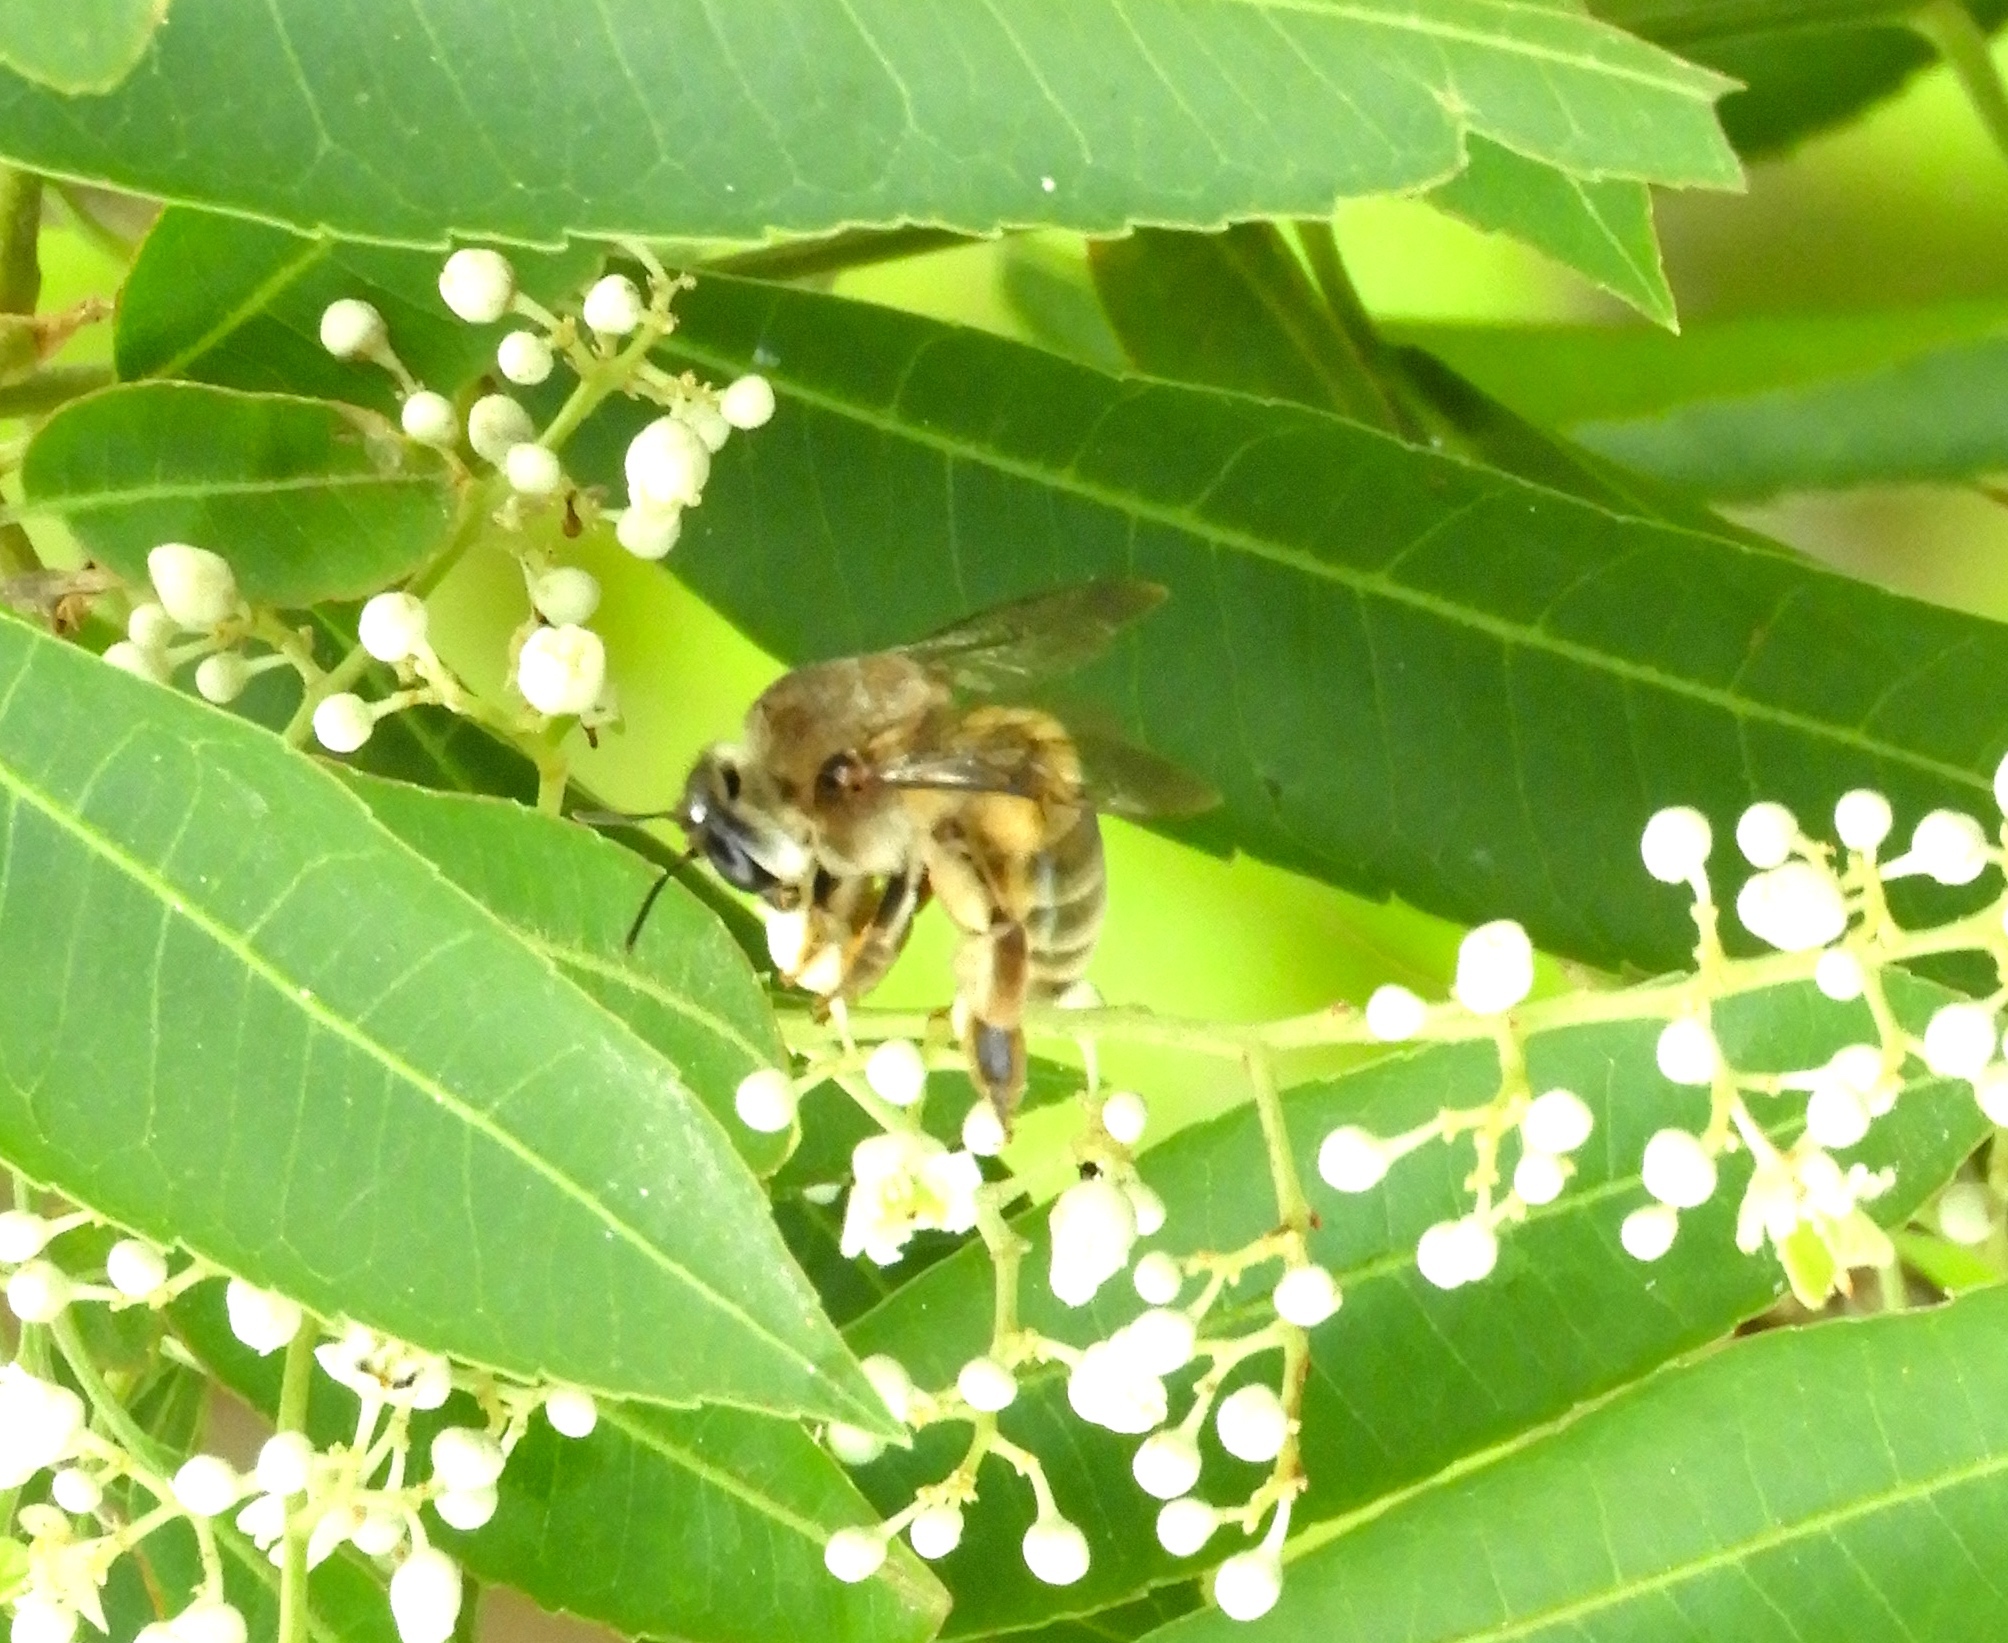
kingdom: Animalia
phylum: Arthropoda
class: Insecta
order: Hymenoptera
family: Colletidae
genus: Ptiloglossa
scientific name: Ptiloglossa
